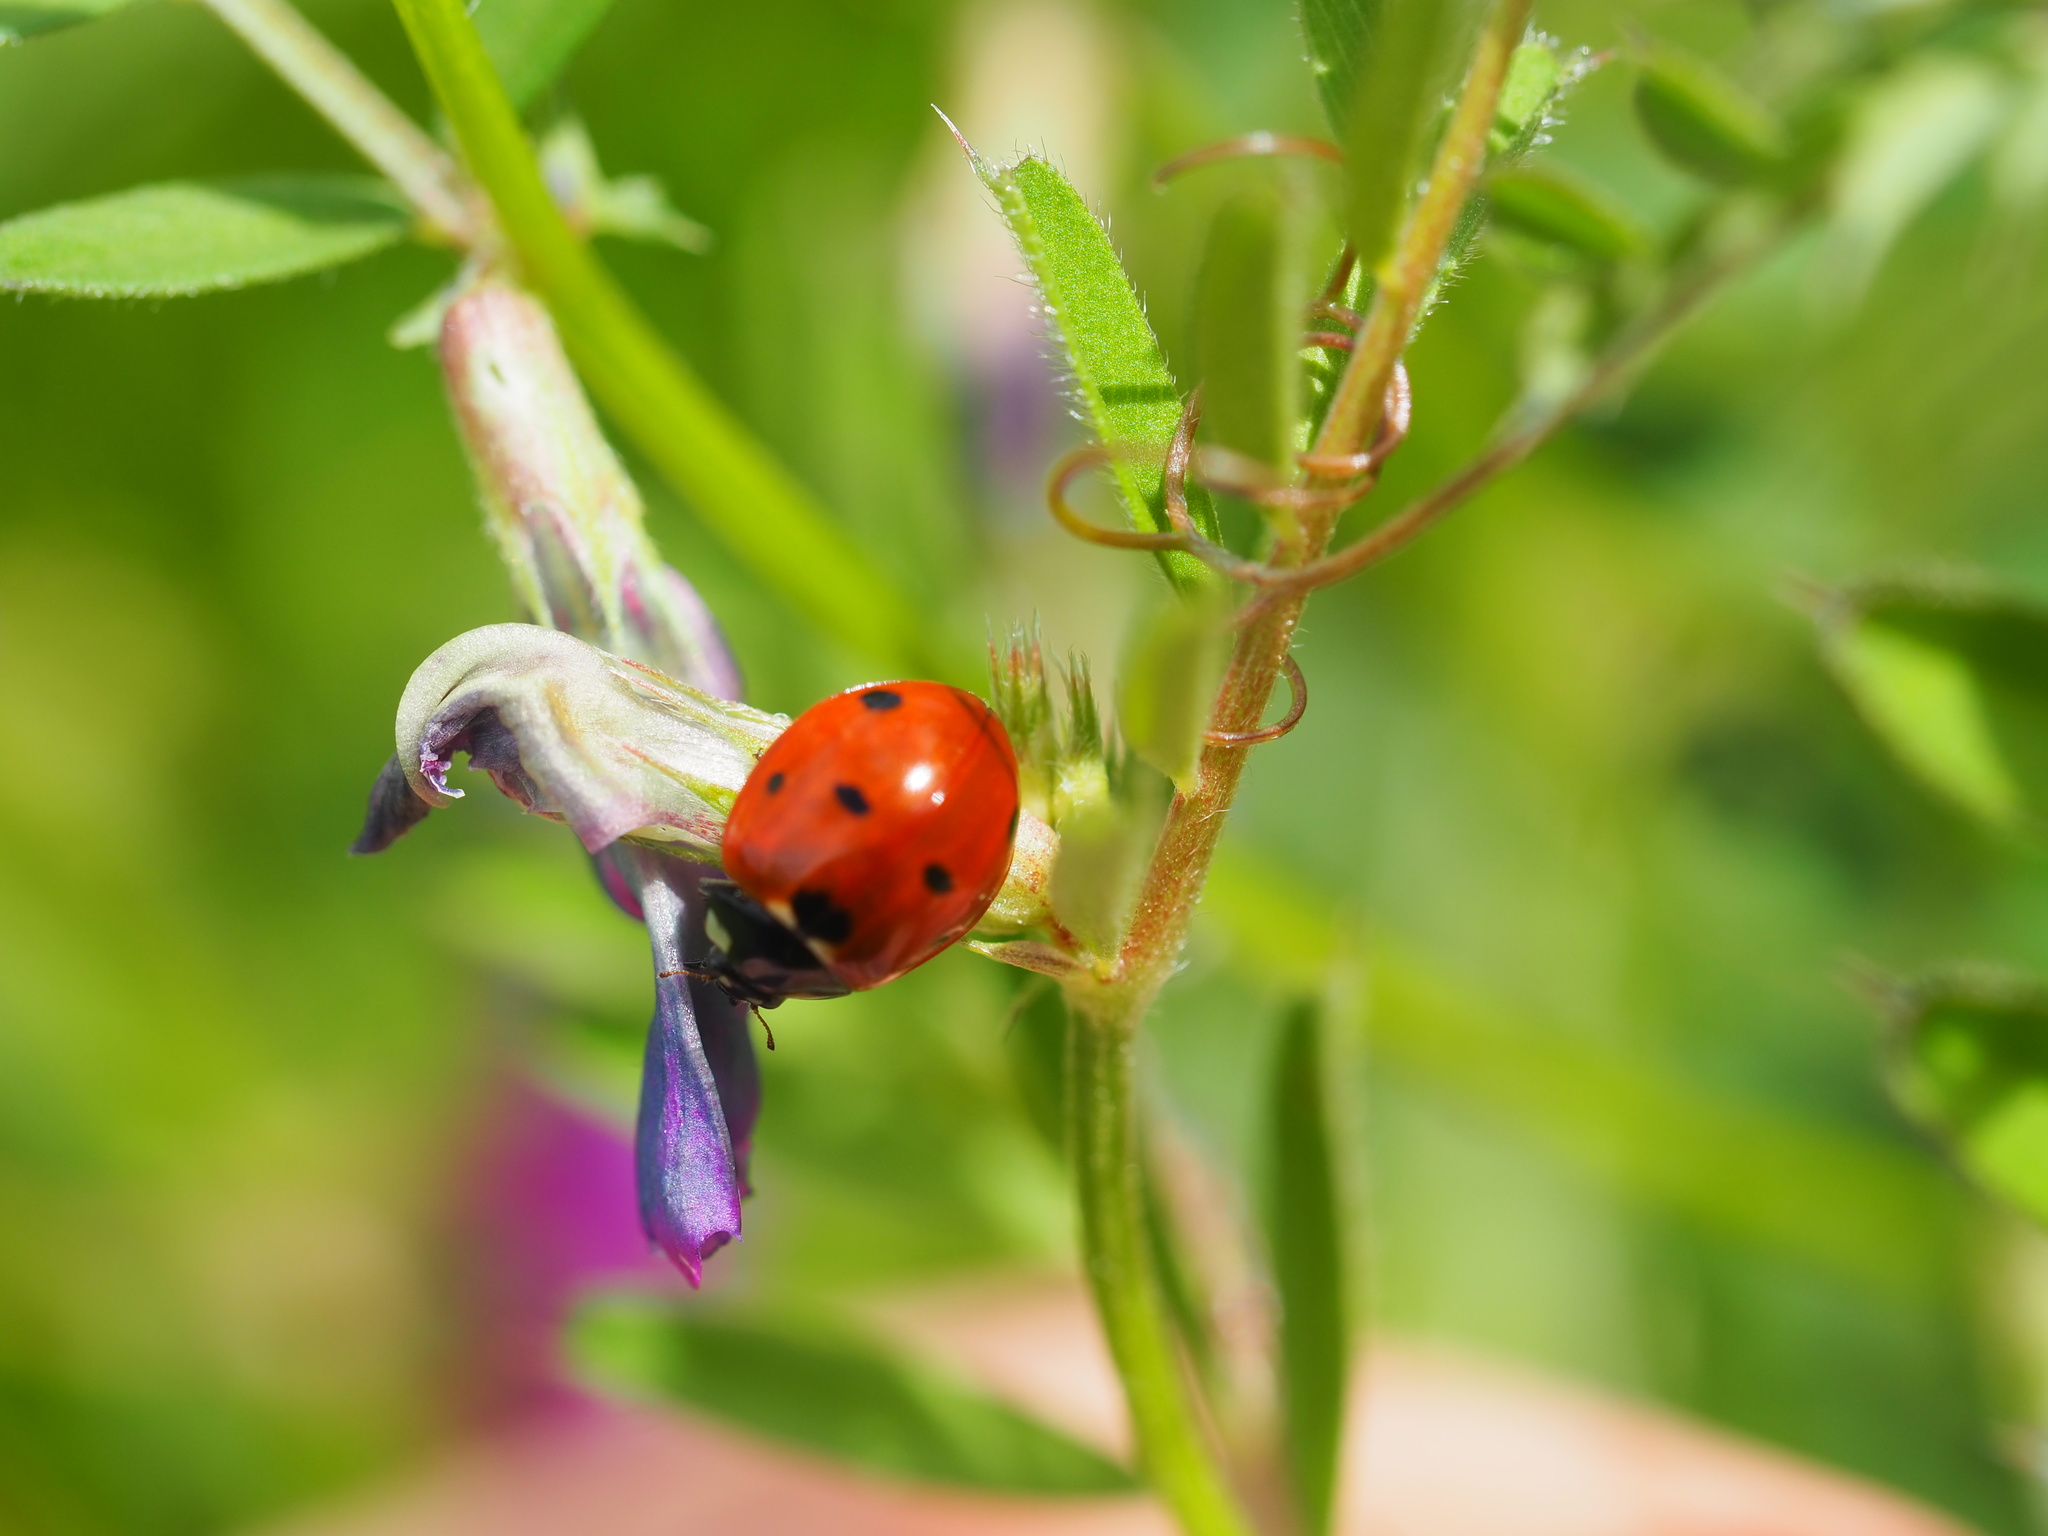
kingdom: Animalia
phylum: Arthropoda
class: Insecta
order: Coleoptera
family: Coccinellidae
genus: Coccinella
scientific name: Coccinella septempunctata
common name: Sevenspotted lady beetle
